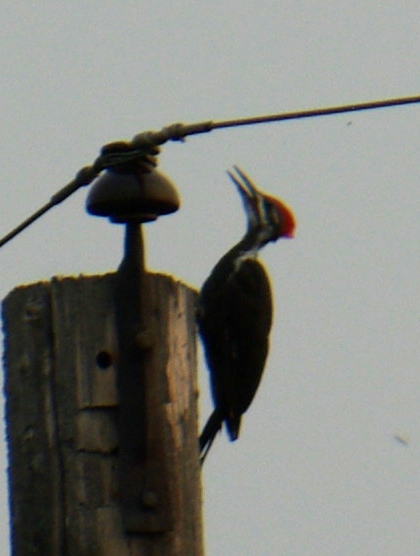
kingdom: Animalia
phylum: Chordata
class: Aves
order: Piciformes
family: Picidae
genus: Dryocopus
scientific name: Dryocopus pileatus
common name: Pileated woodpecker
